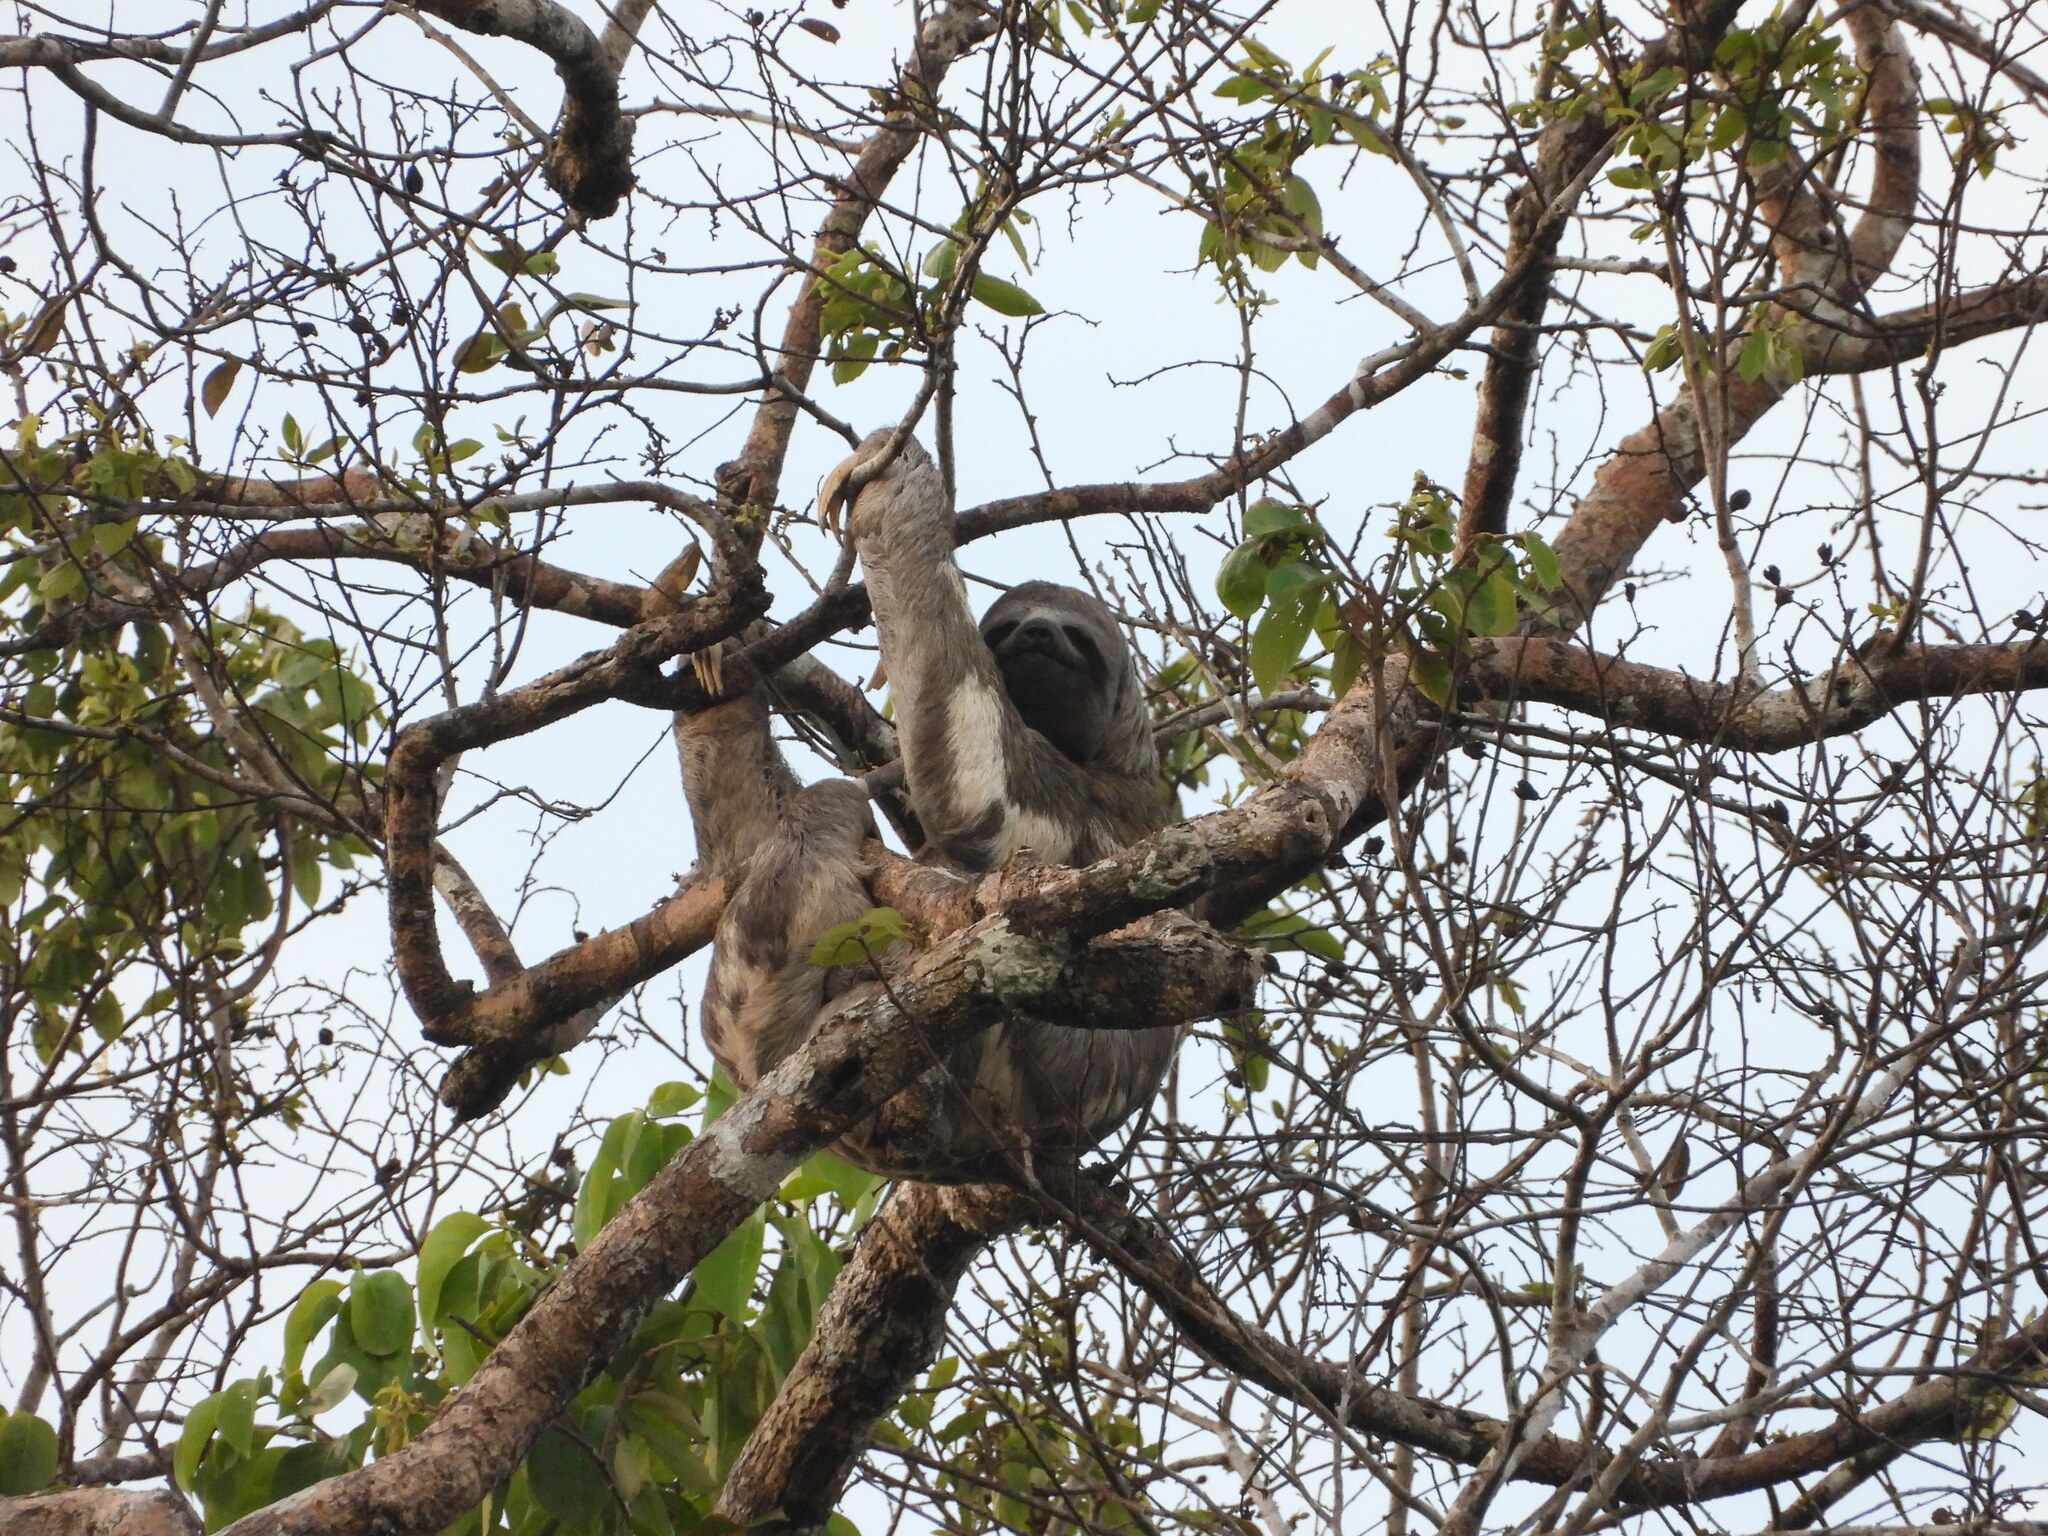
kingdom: Animalia
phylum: Chordata
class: Mammalia
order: Pilosa
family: Bradypodidae
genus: Bradypus
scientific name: Bradypus variegatus
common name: Brown-throated three-toed sloth
